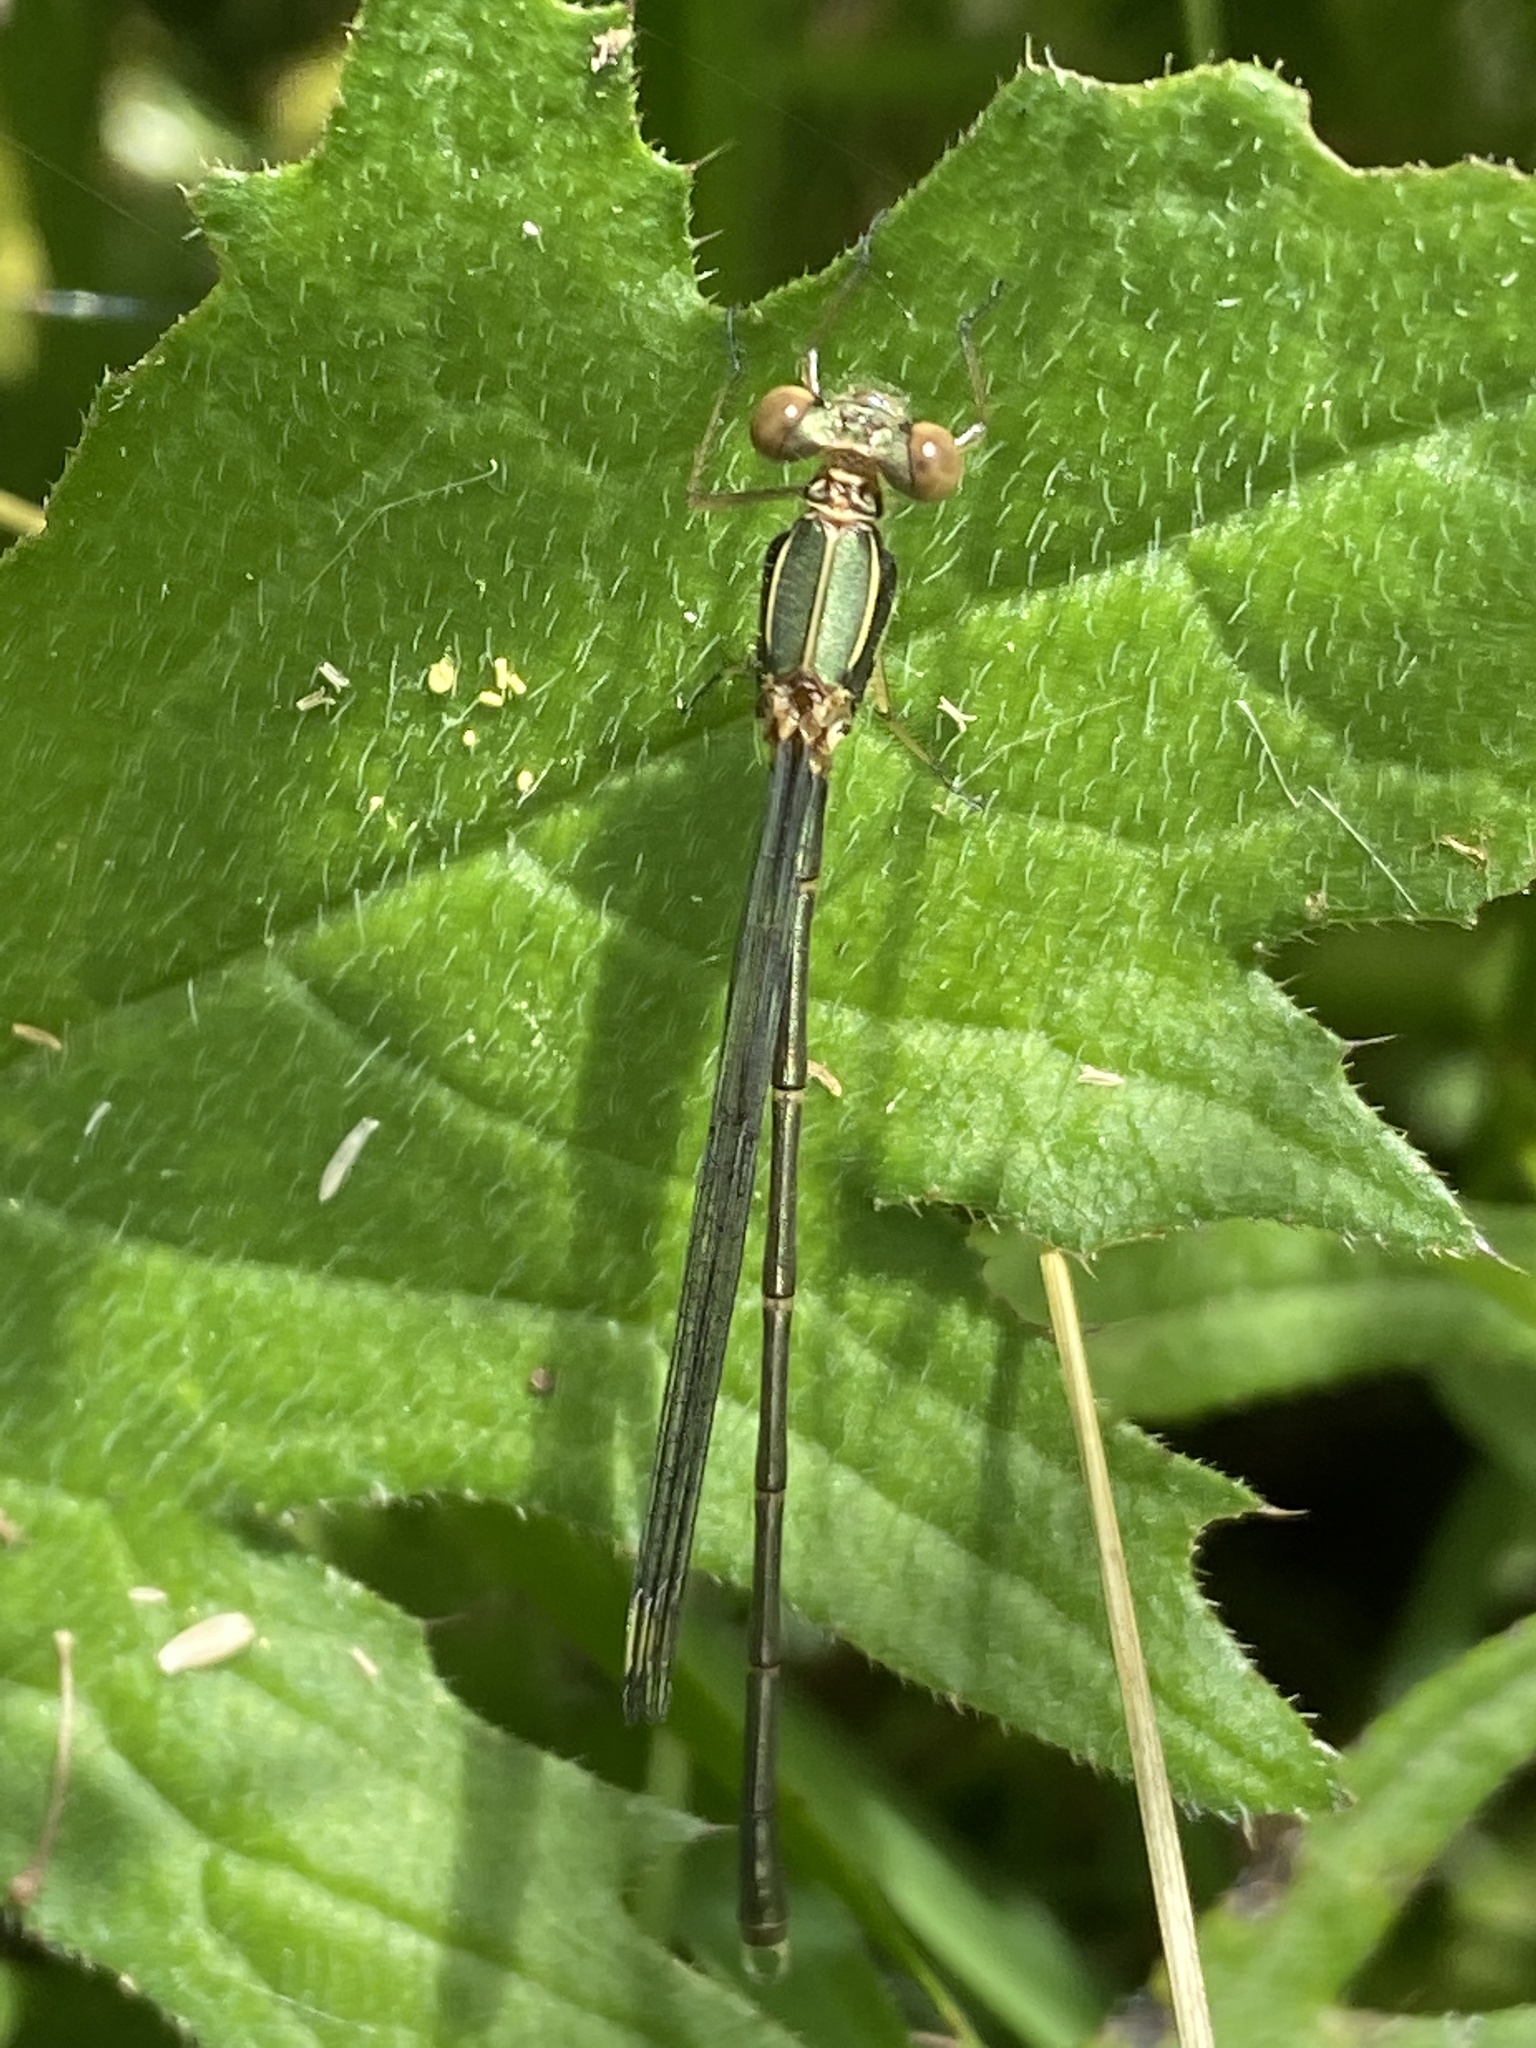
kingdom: Animalia
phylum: Arthropoda
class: Insecta
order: Odonata
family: Lestidae
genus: Chalcolestes
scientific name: Chalcolestes viridis
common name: Green emerald damselfly
